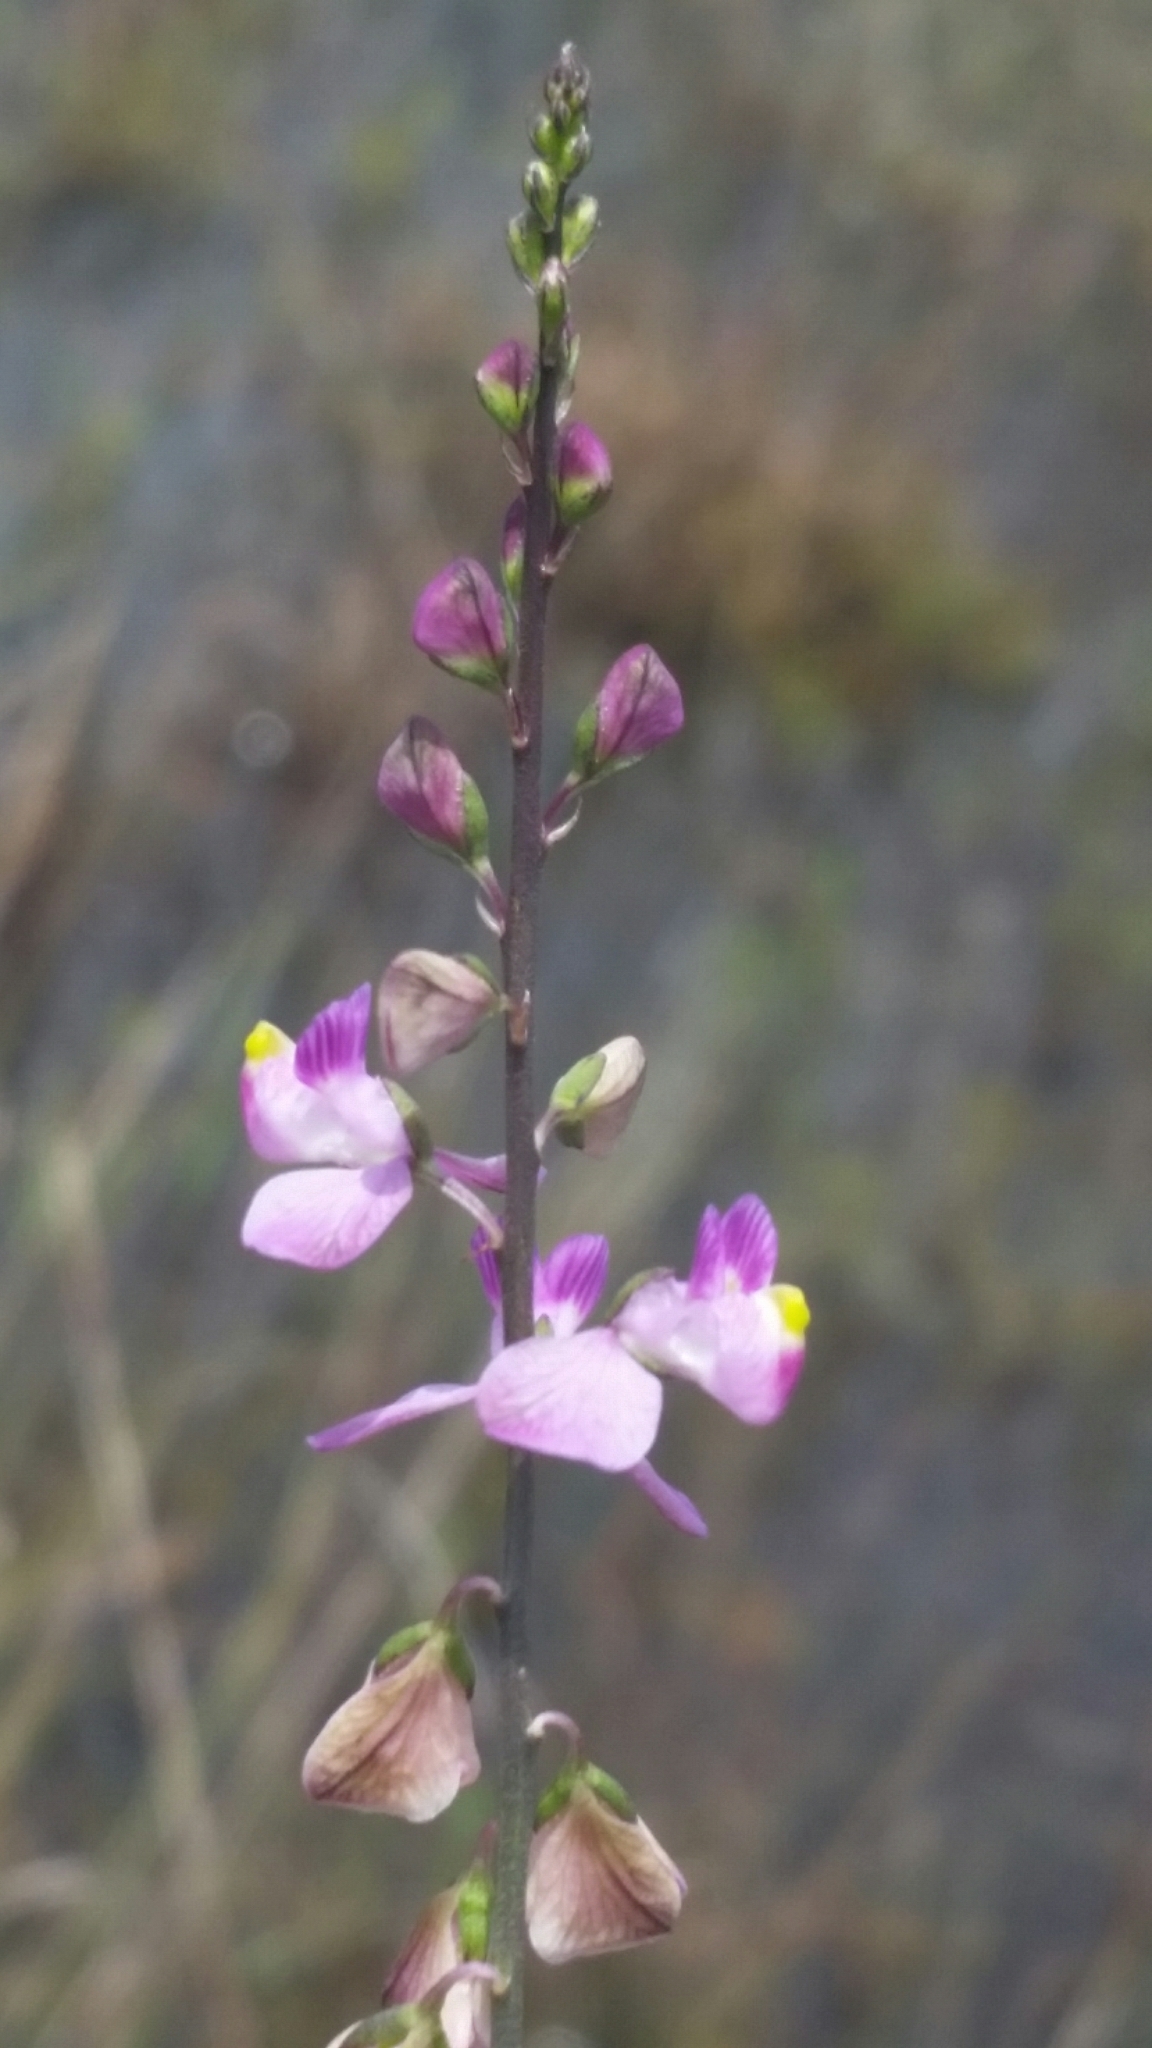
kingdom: Plantae
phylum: Tracheophyta
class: Magnoliopsida
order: Fabales
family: Polygalaceae
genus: Asemeia
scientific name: Asemeia grandiflora
